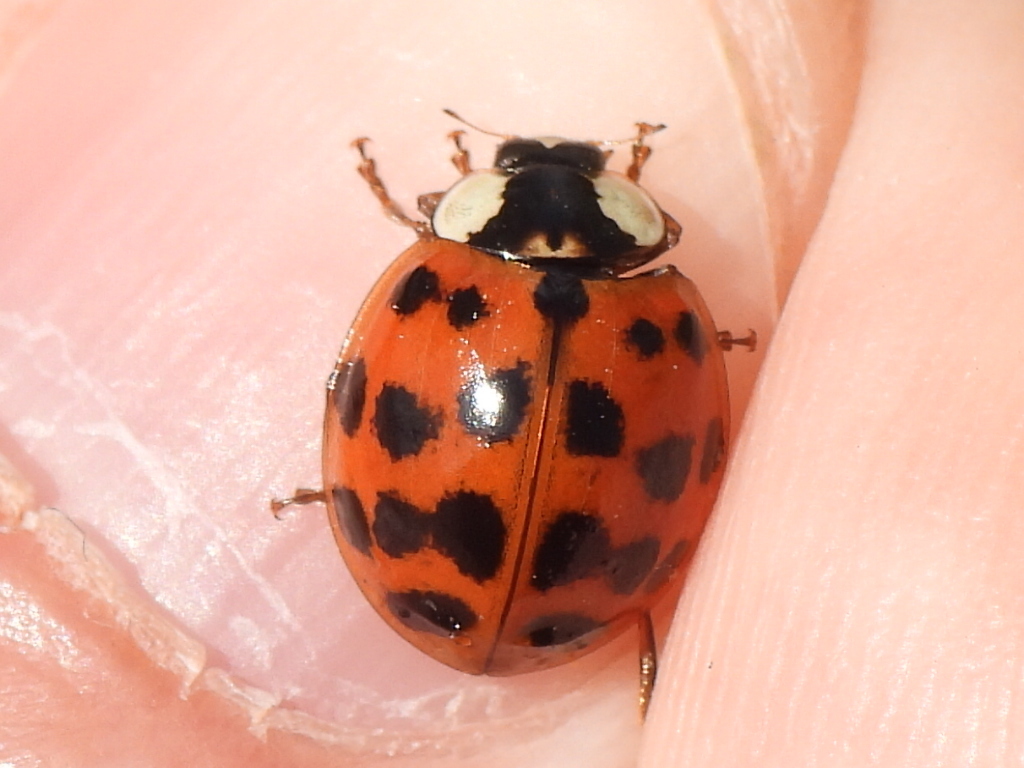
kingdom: Animalia
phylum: Arthropoda
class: Insecta
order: Coleoptera
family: Coccinellidae
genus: Harmonia
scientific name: Harmonia axyridis
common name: Harlequin ladybird
